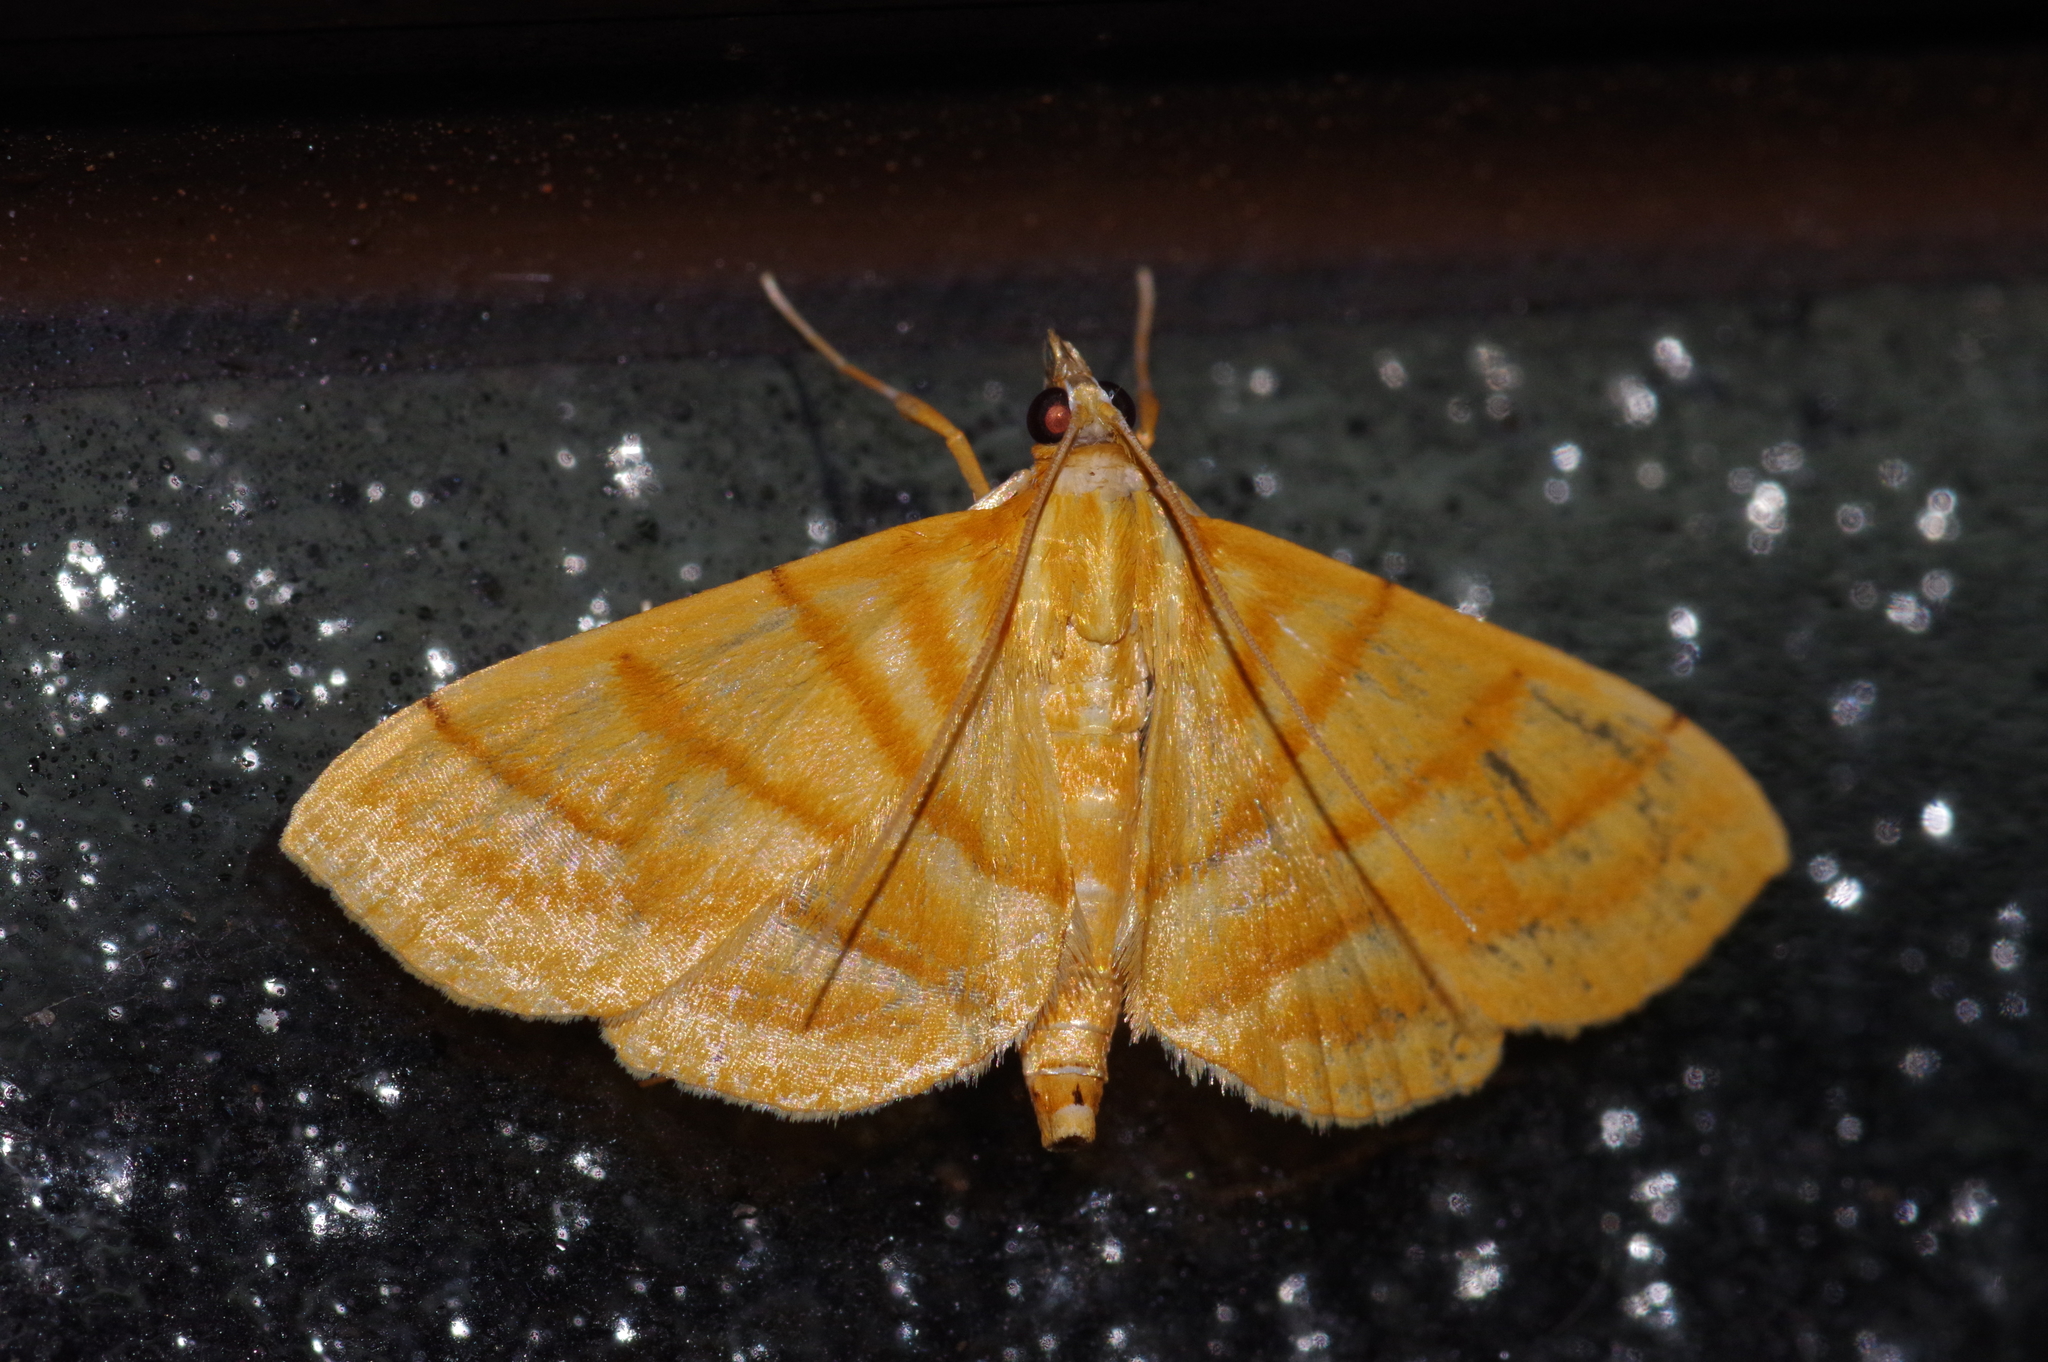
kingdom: Animalia
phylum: Arthropoda
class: Insecta
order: Lepidoptera
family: Crambidae
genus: Pagyda
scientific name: Pagyda quinquelineata
